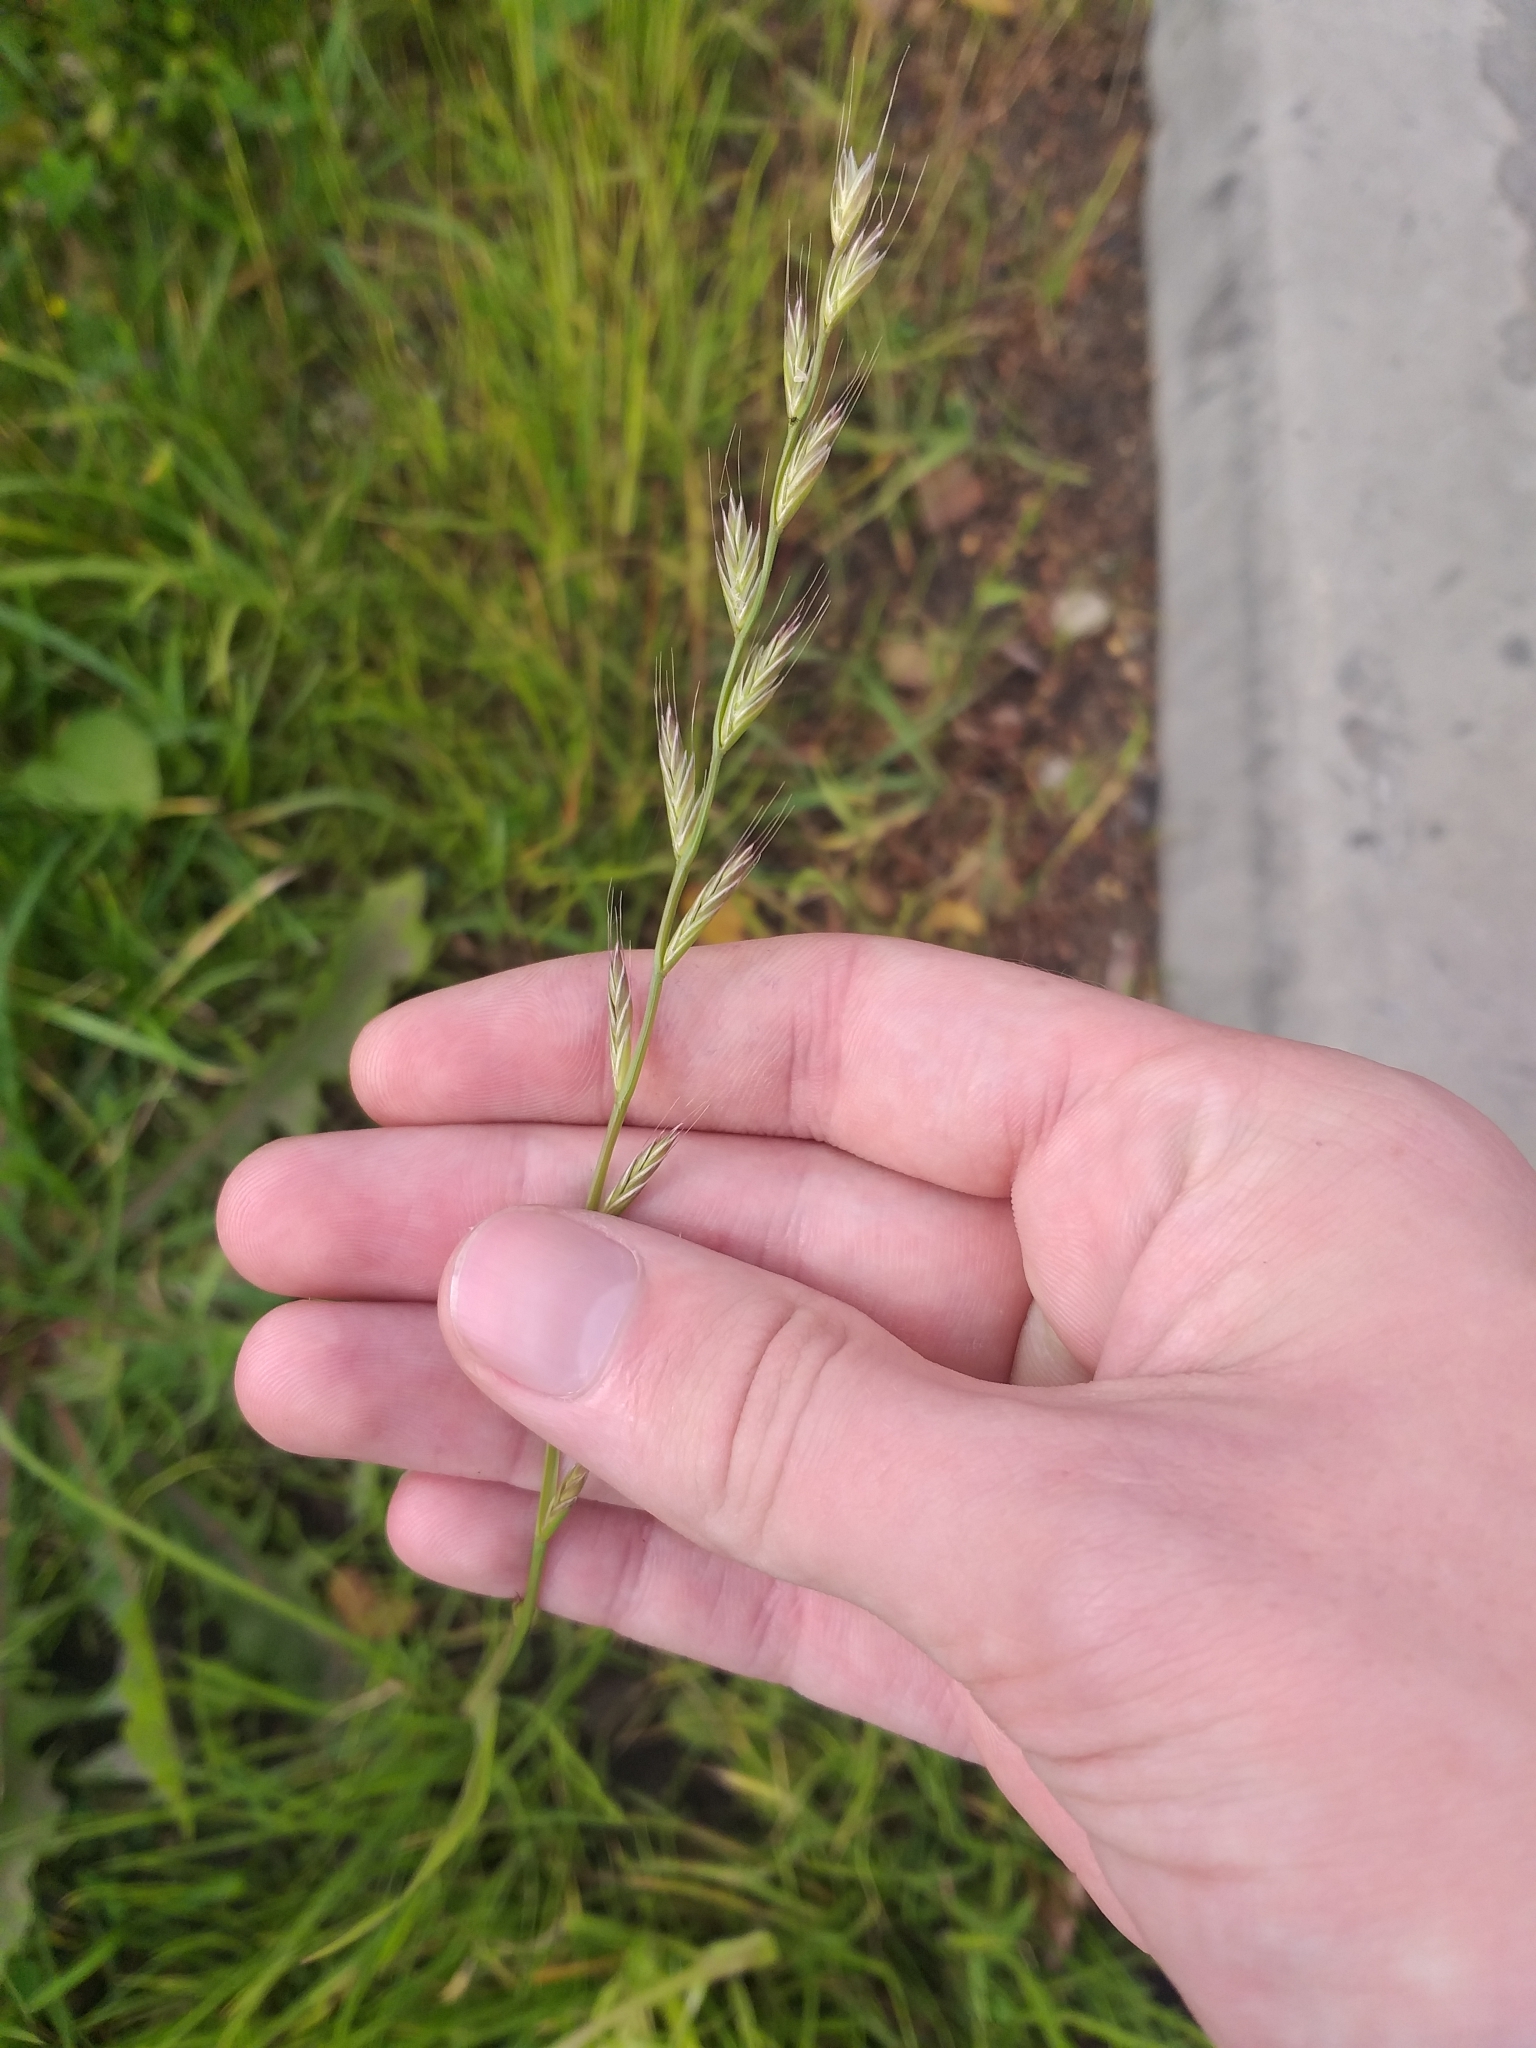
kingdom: Plantae
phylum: Tracheophyta
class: Liliopsida
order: Poales
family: Poaceae
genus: Lolium
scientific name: Lolium multiflorum
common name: Annual ryegrass
